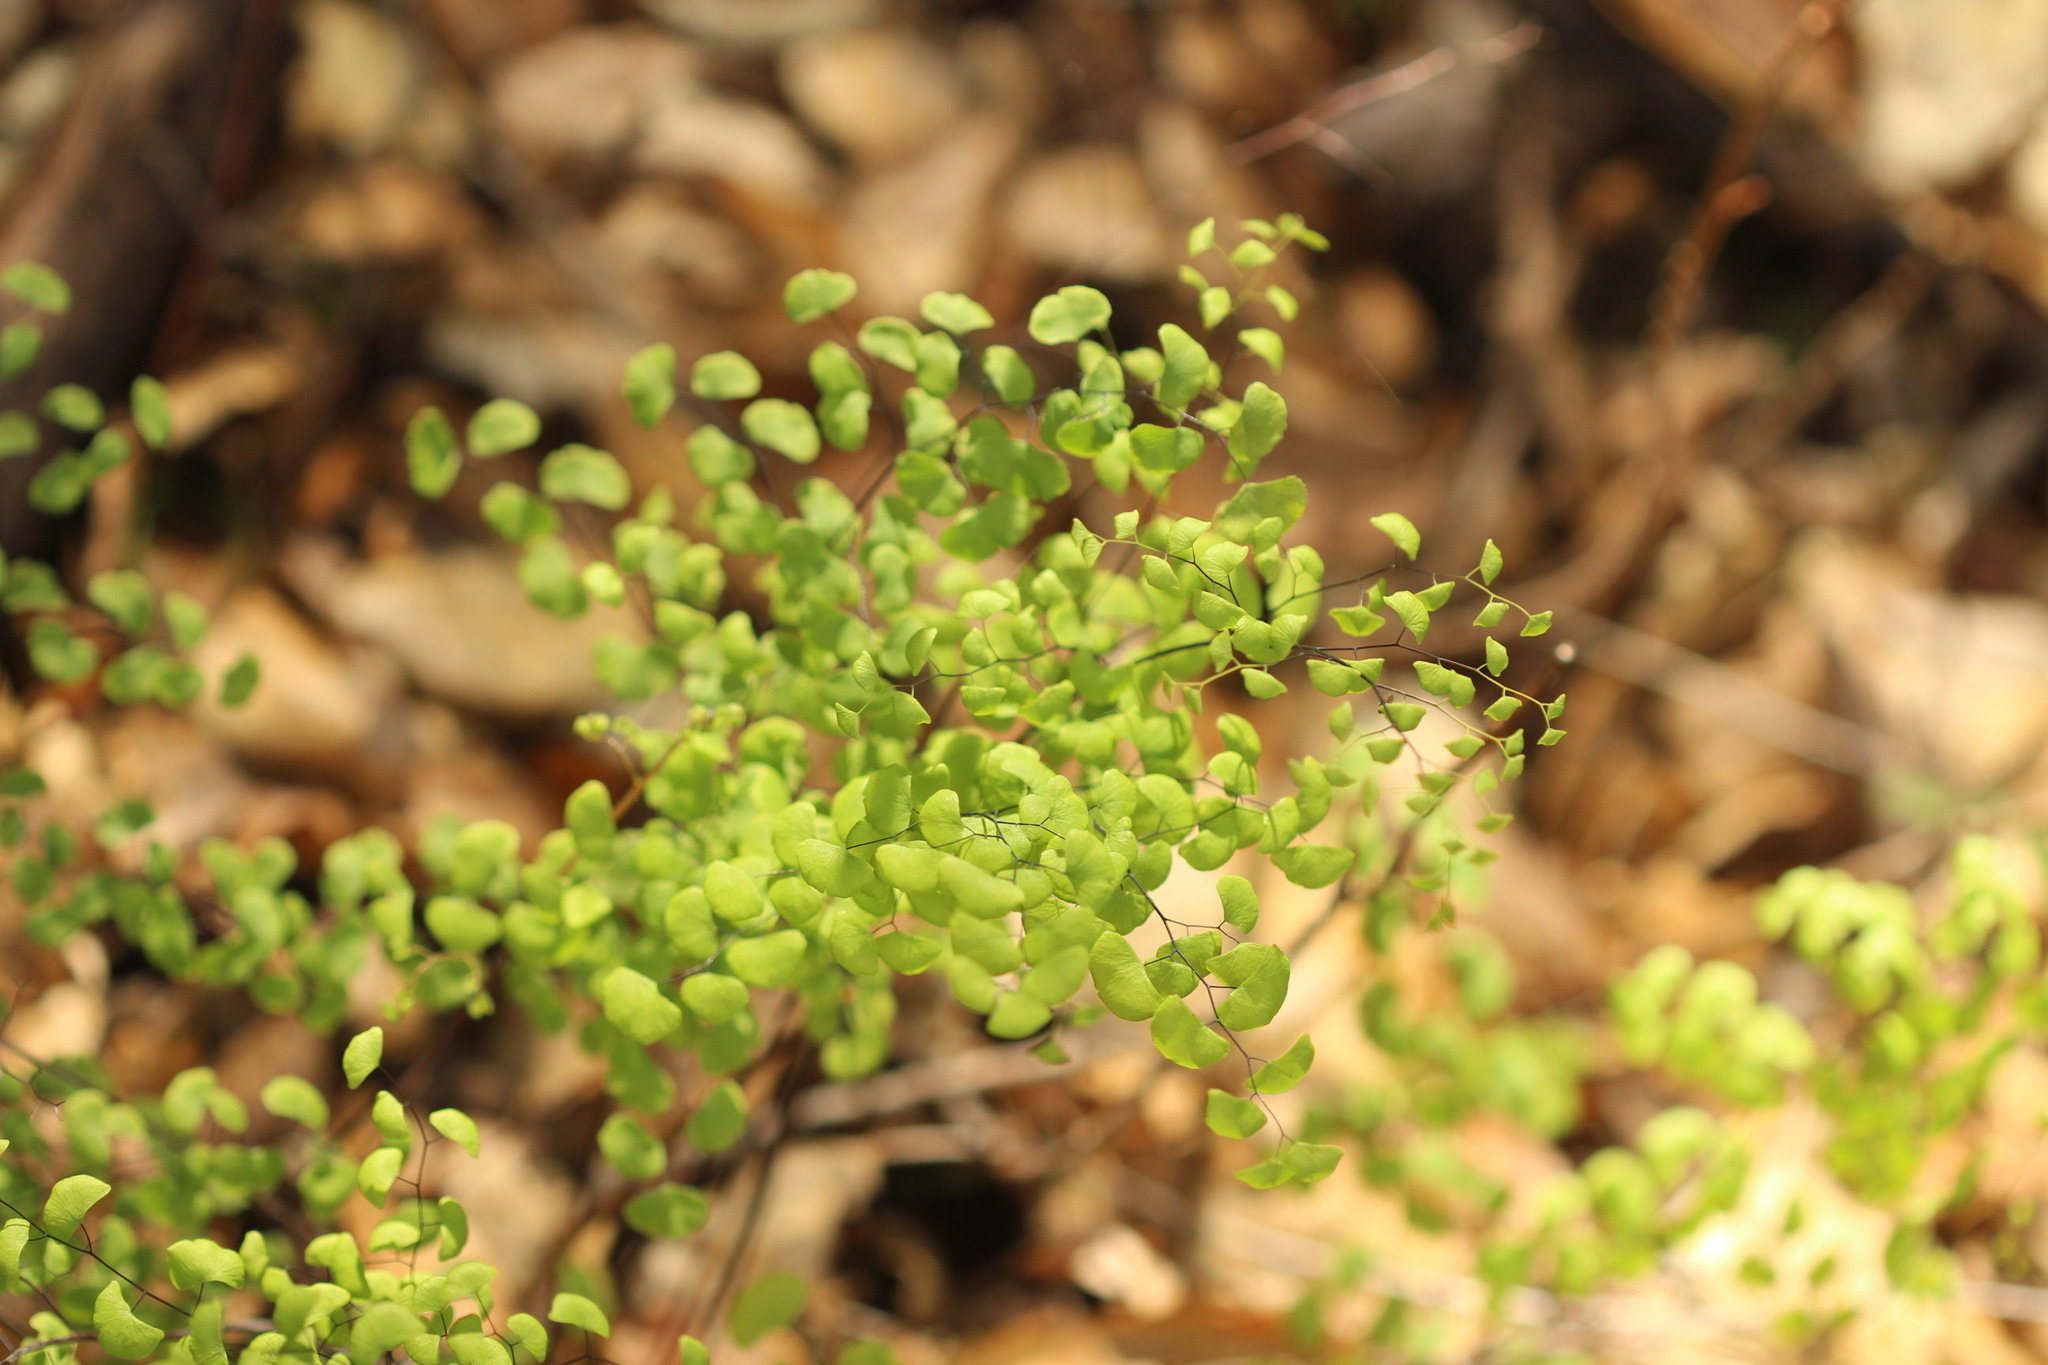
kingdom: Plantae
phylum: Tracheophyta
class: Polypodiopsida
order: Polypodiales
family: Pteridaceae
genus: Adiantum
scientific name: Adiantum jordanii
